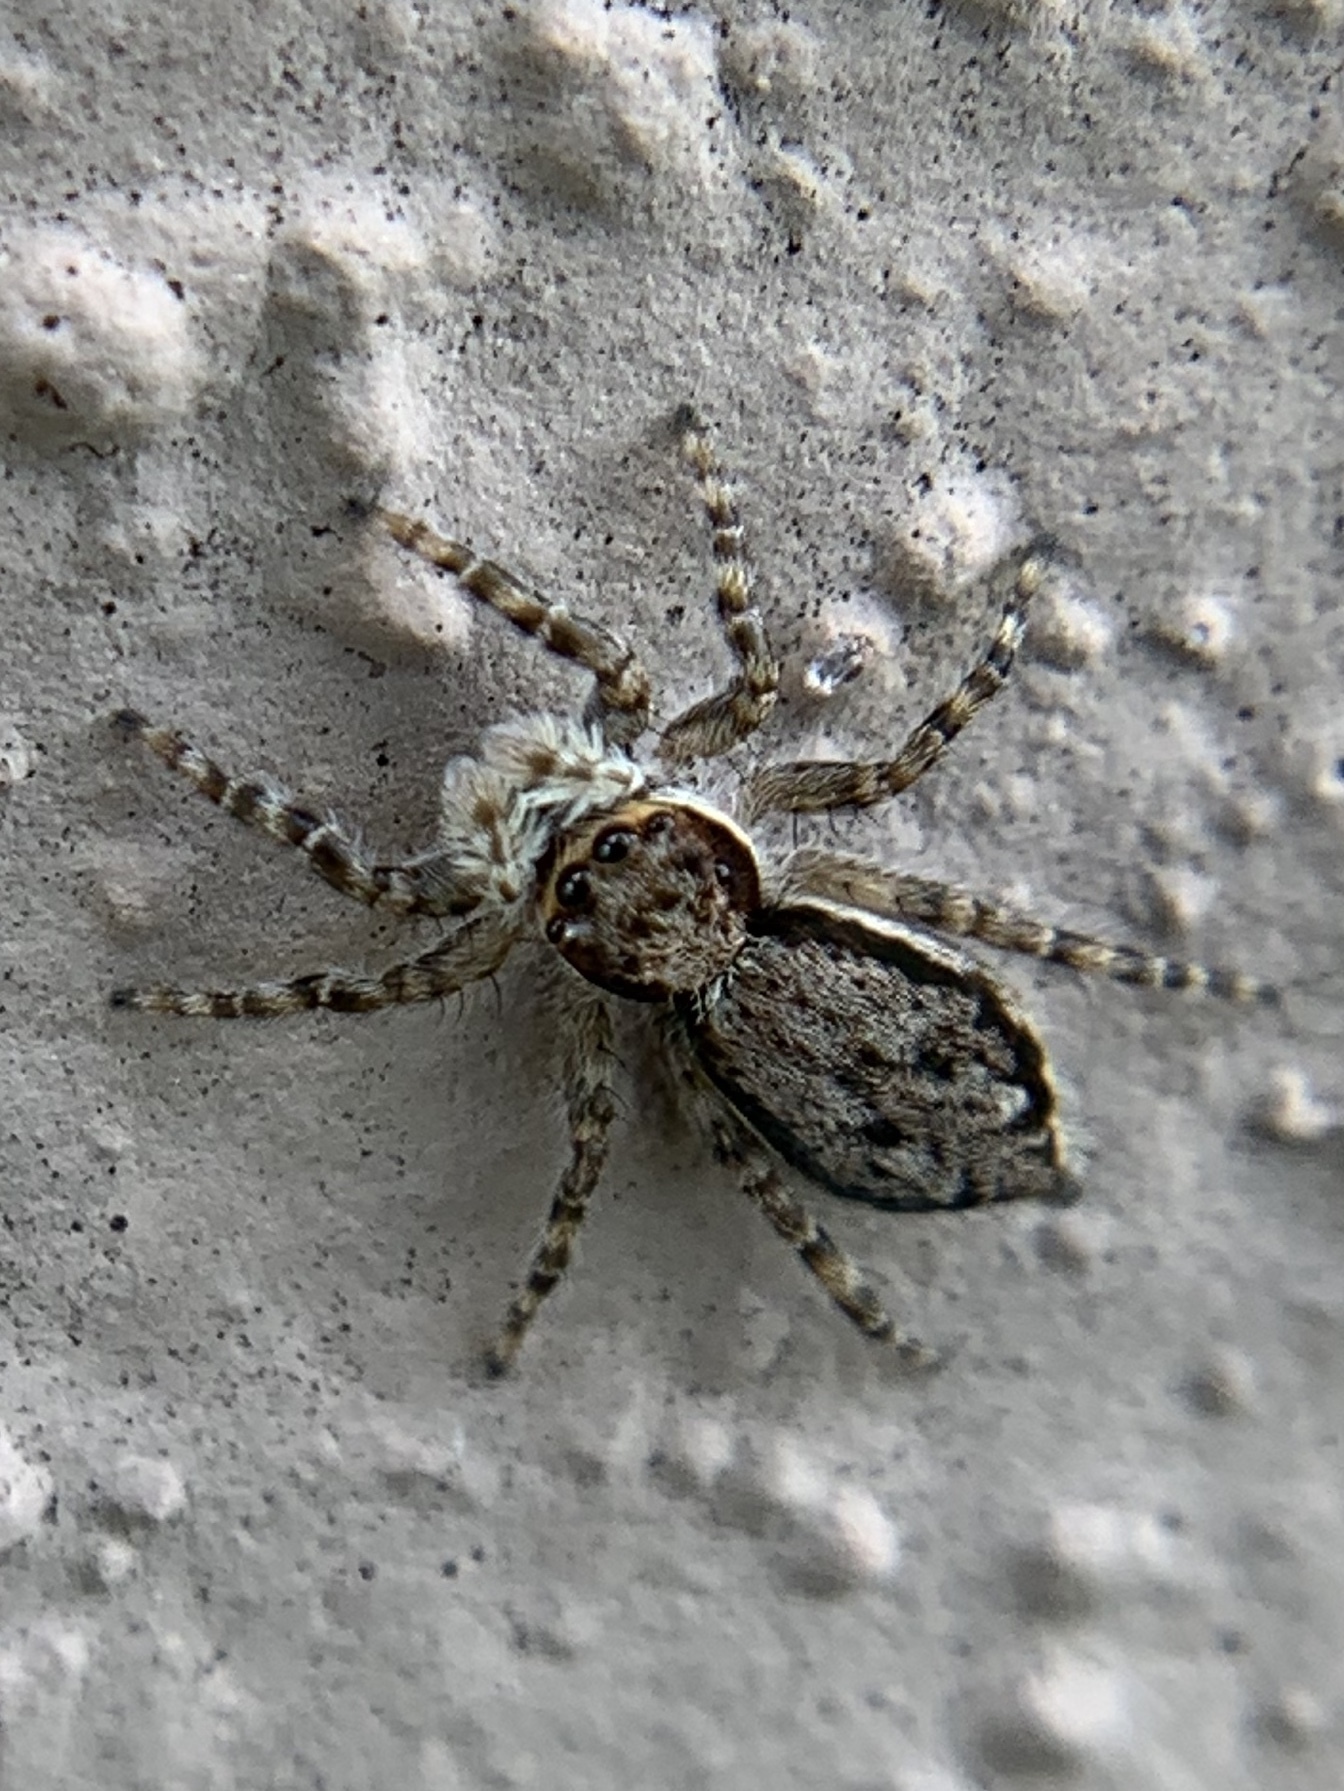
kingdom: Animalia
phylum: Arthropoda
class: Arachnida
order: Araneae
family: Salticidae
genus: Menemerus
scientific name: Menemerus bivittatus
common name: Gray wall jumper
